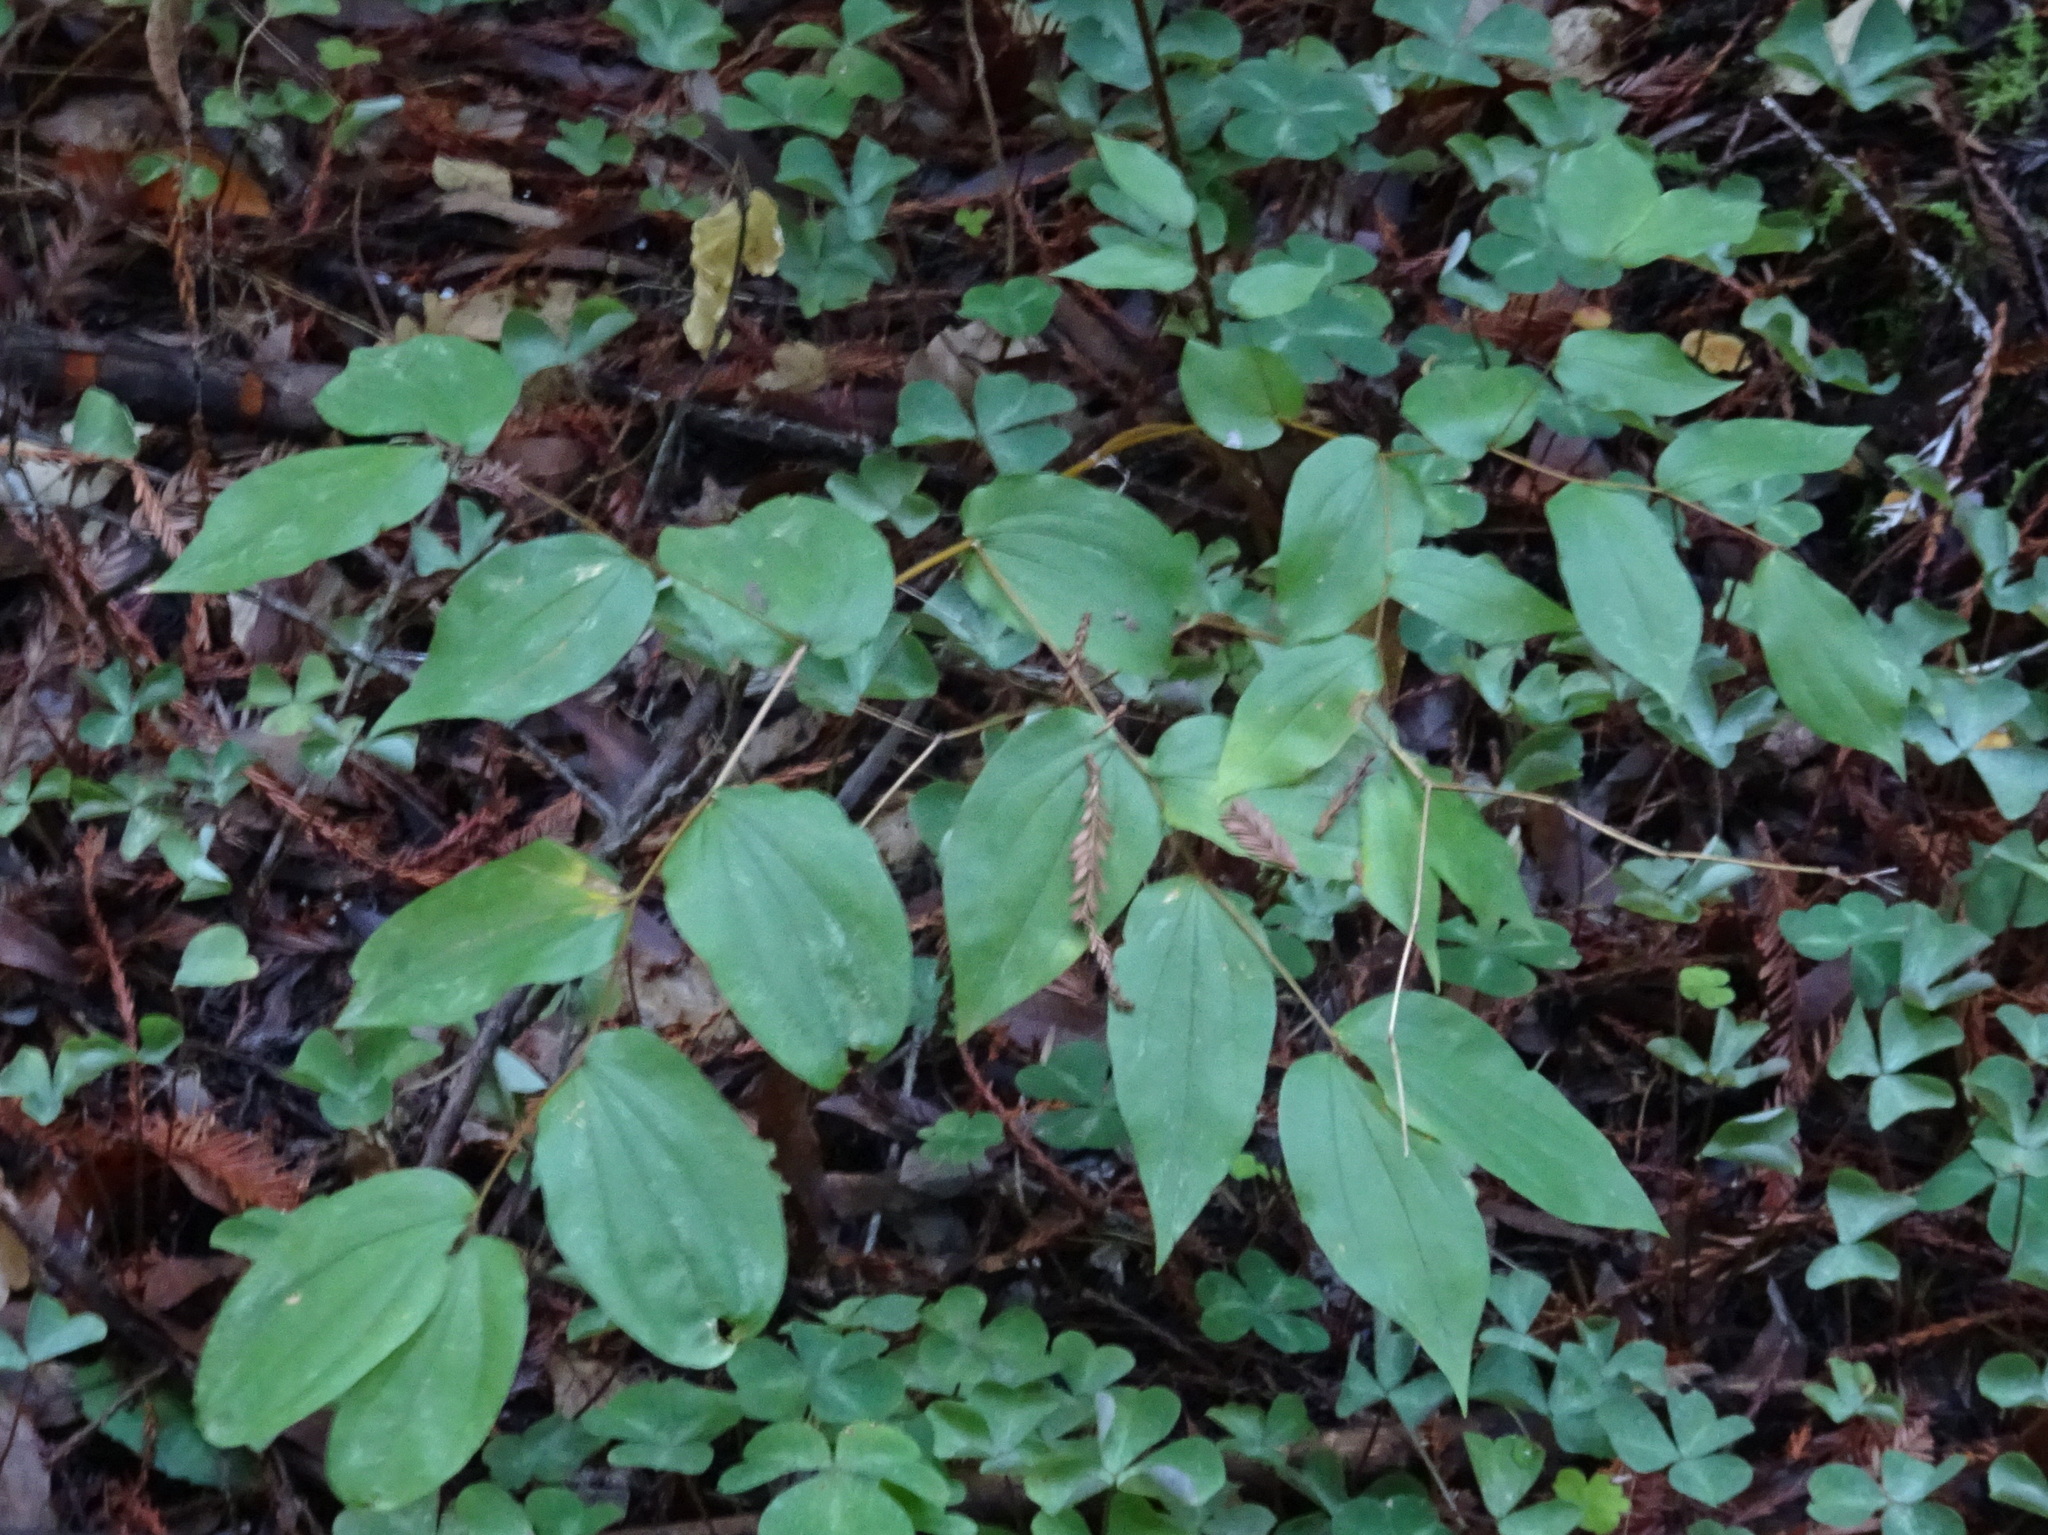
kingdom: Plantae
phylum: Tracheophyta
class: Liliopsida
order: Liliales
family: Liliaceae
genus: Prosartes
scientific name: Prosartes hookeri
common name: Fairy-bells
